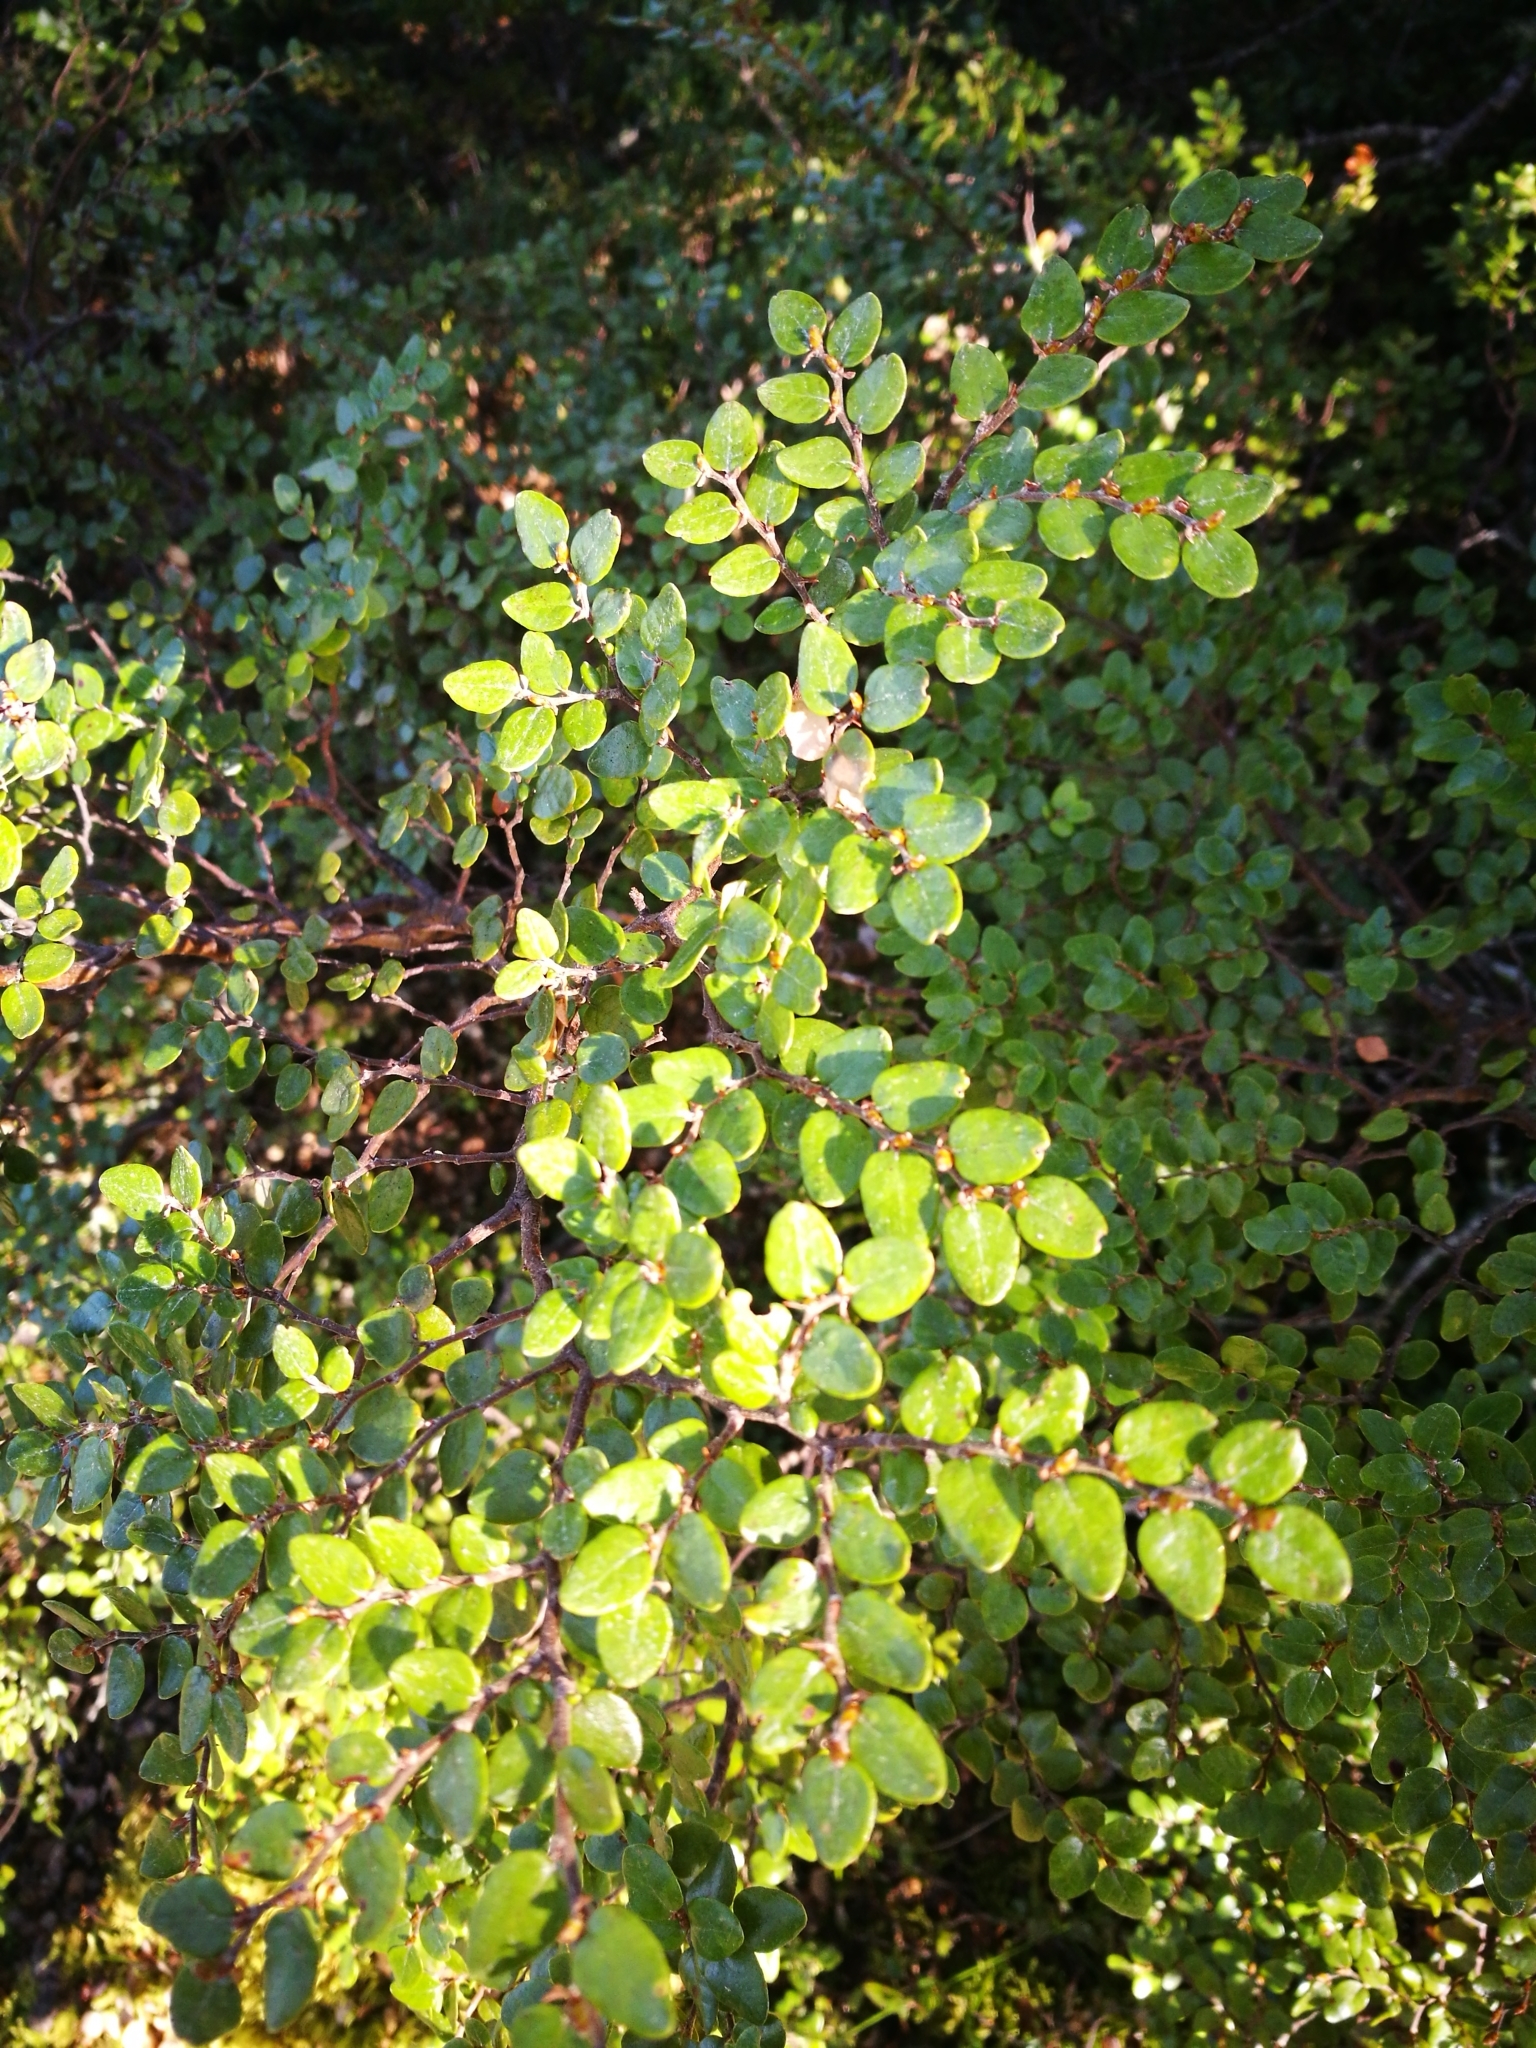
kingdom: Plantae
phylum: Tracheophyta
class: Magnoliopsida
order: Fagales
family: Nothofagaceae
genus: Nothofagus
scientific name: Nothofagus cliffortioides
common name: Mountain beech
